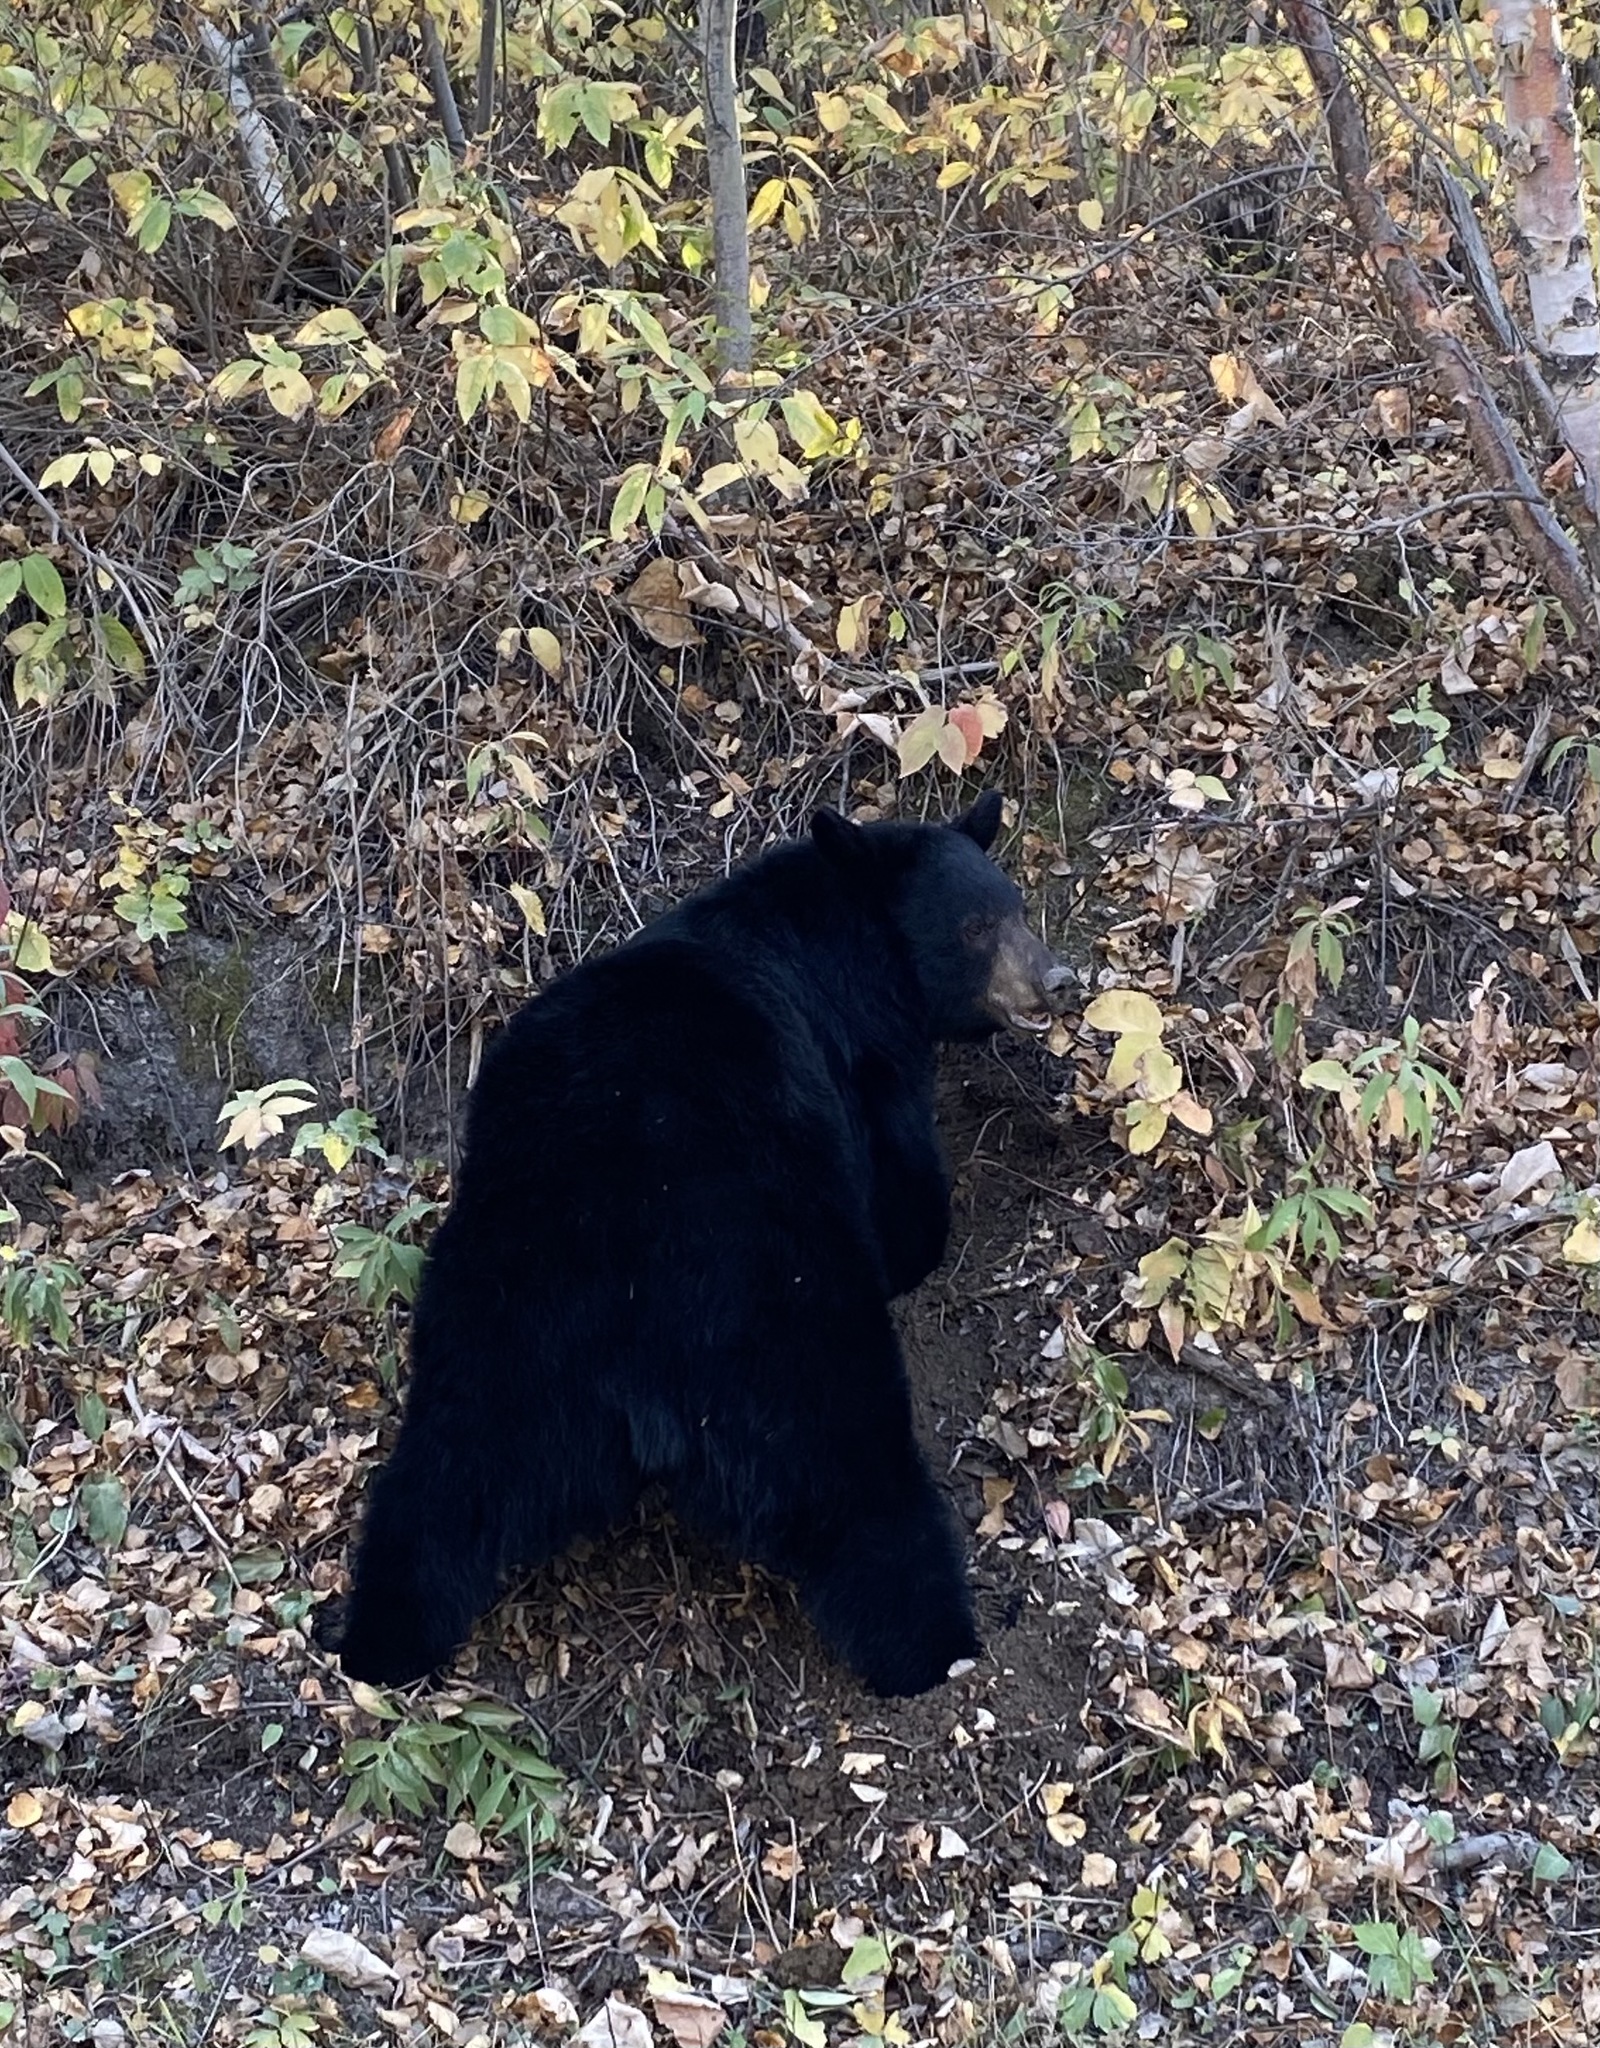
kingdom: Animalia
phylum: Chordata
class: Mammalia
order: Carnivora
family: Ursidae
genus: Ursus
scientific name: Ursus americanus
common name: American black bear
